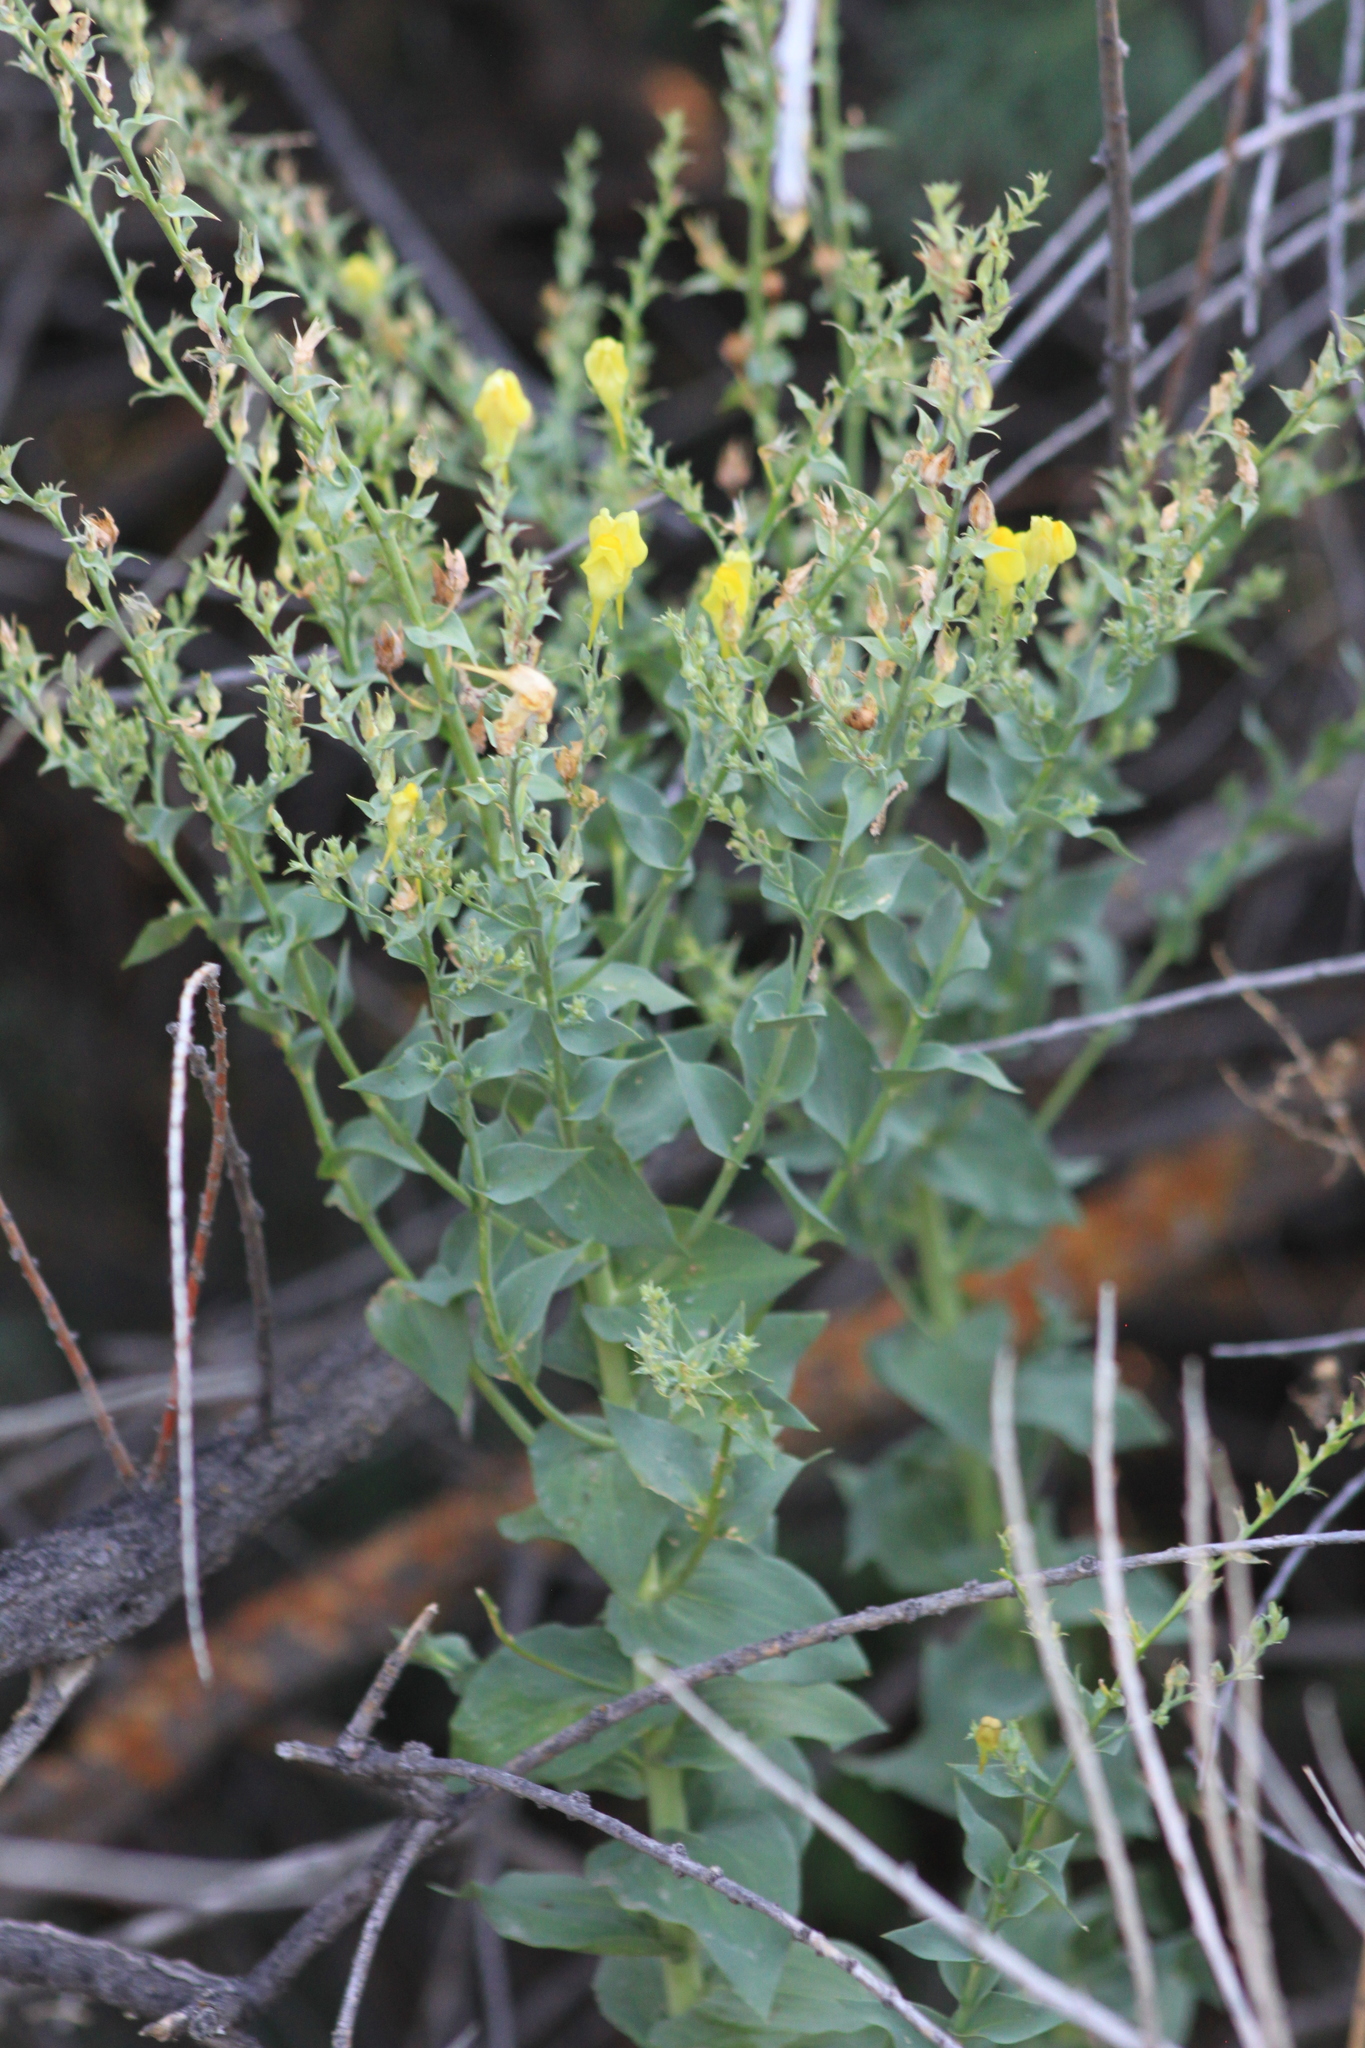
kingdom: Plantae
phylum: Tracheophyta
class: Magnoliopsida
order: Lamiales
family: Plantaginaceae
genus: Linaria
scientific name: Linaria dalmatica
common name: Dalmatian toadflax
